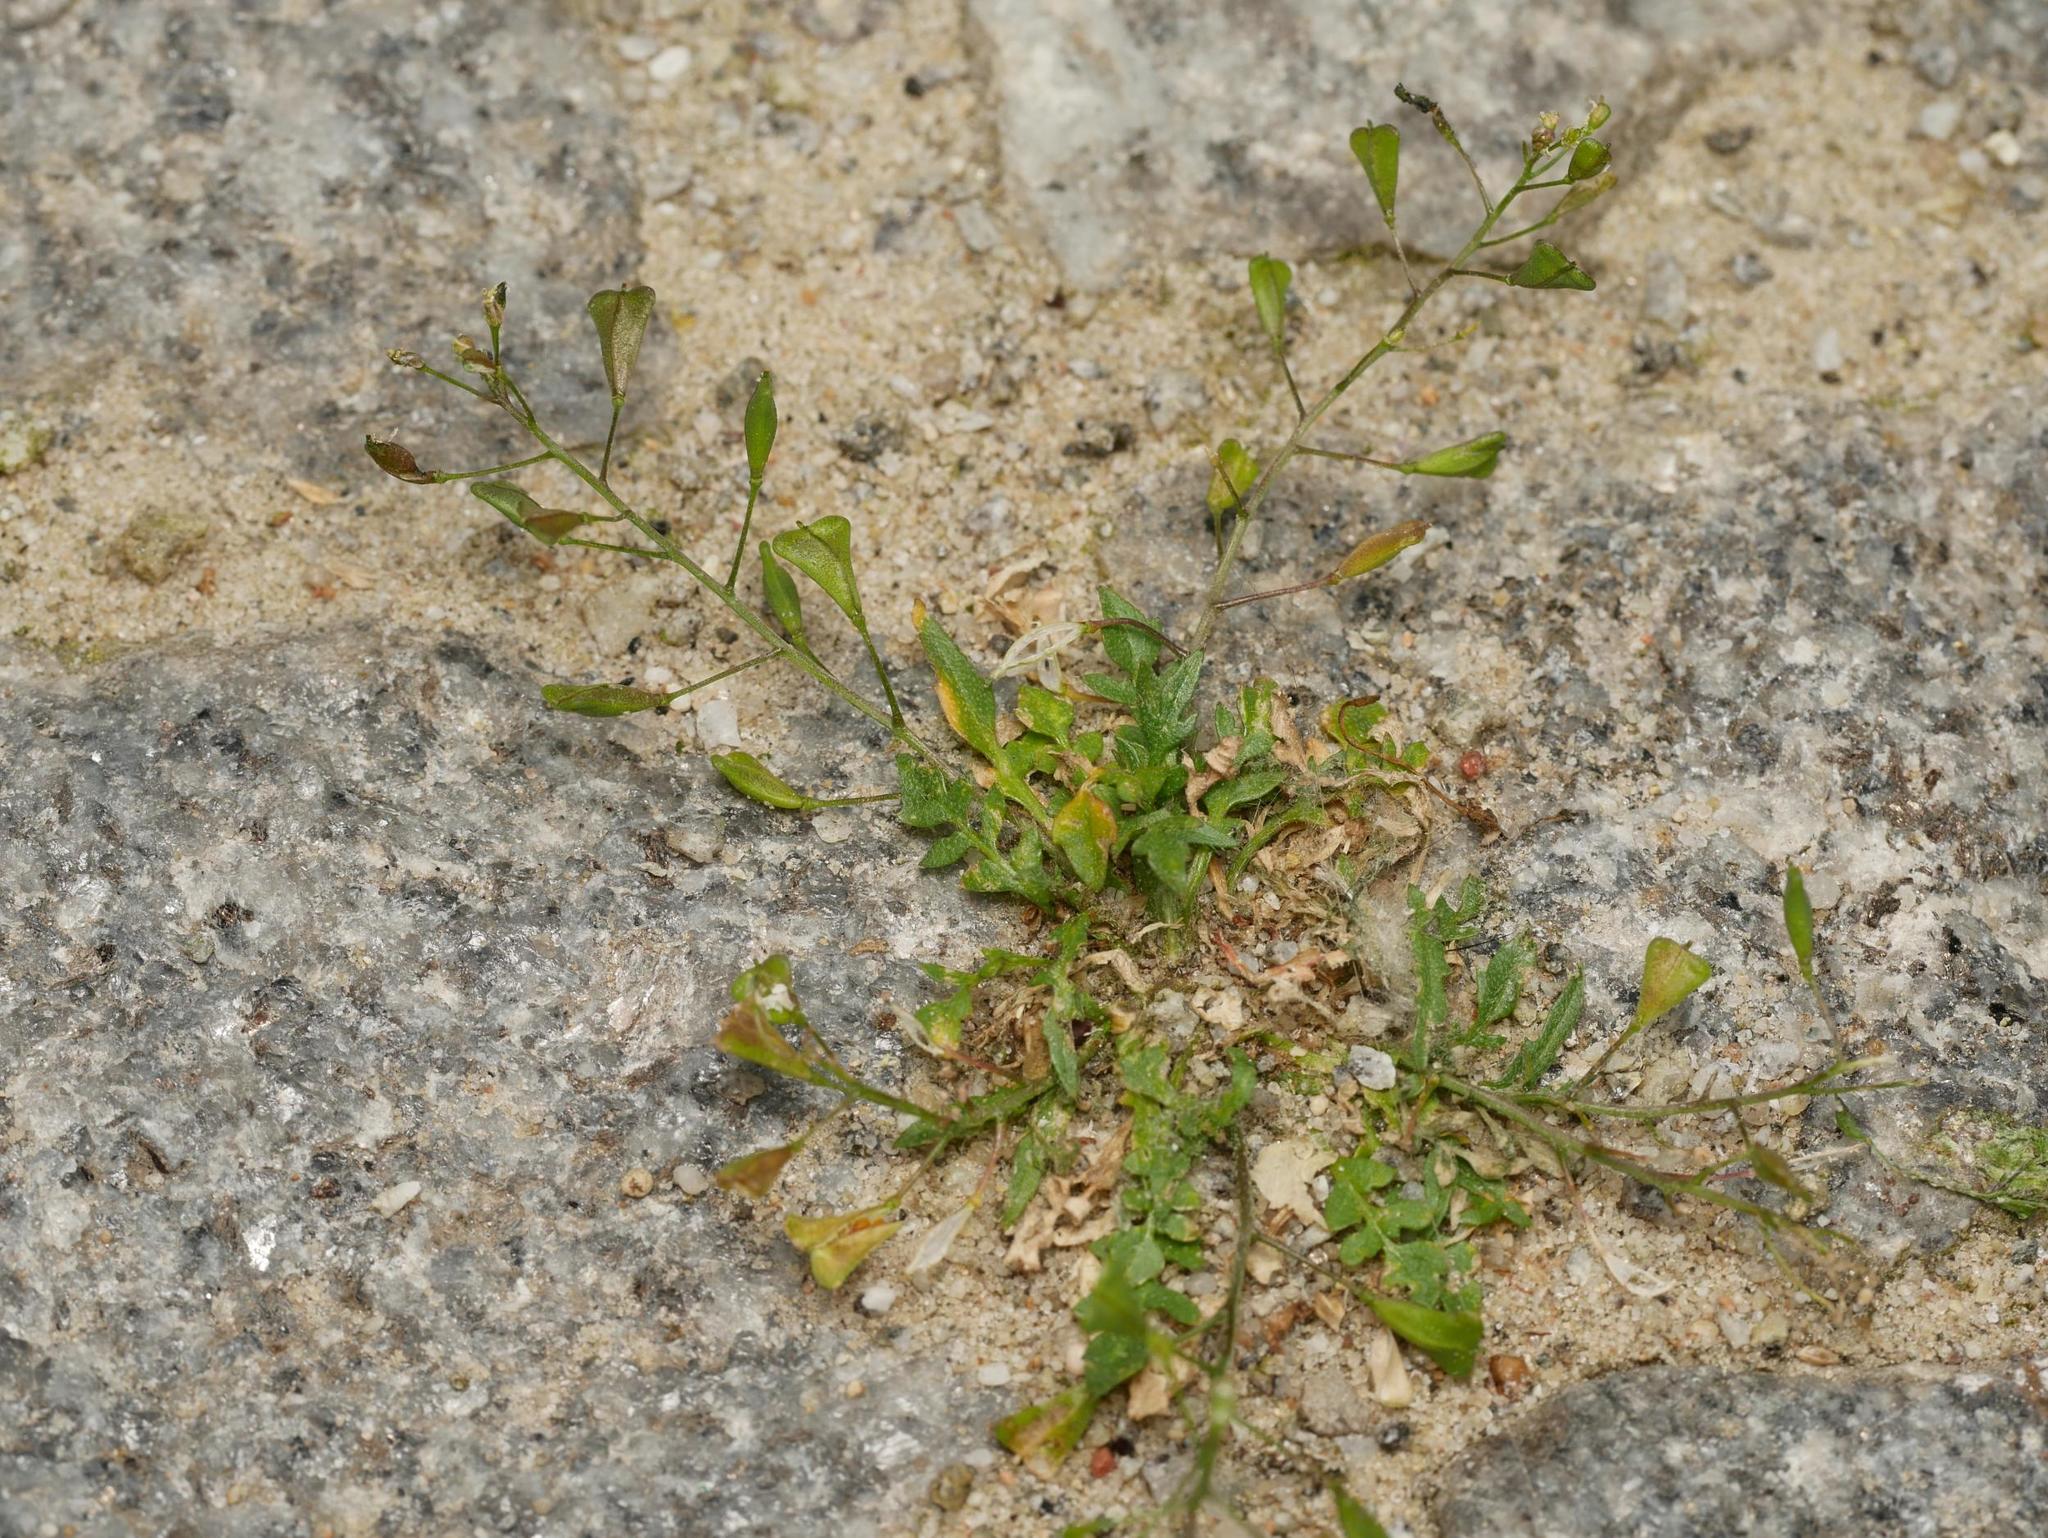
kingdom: Plantae
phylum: Tracheophyta
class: Magnoliopsida
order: Brassicales
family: Brassicaceae
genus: Capsella
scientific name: Capsella bursa-pastoris
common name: Shepherd's purse
